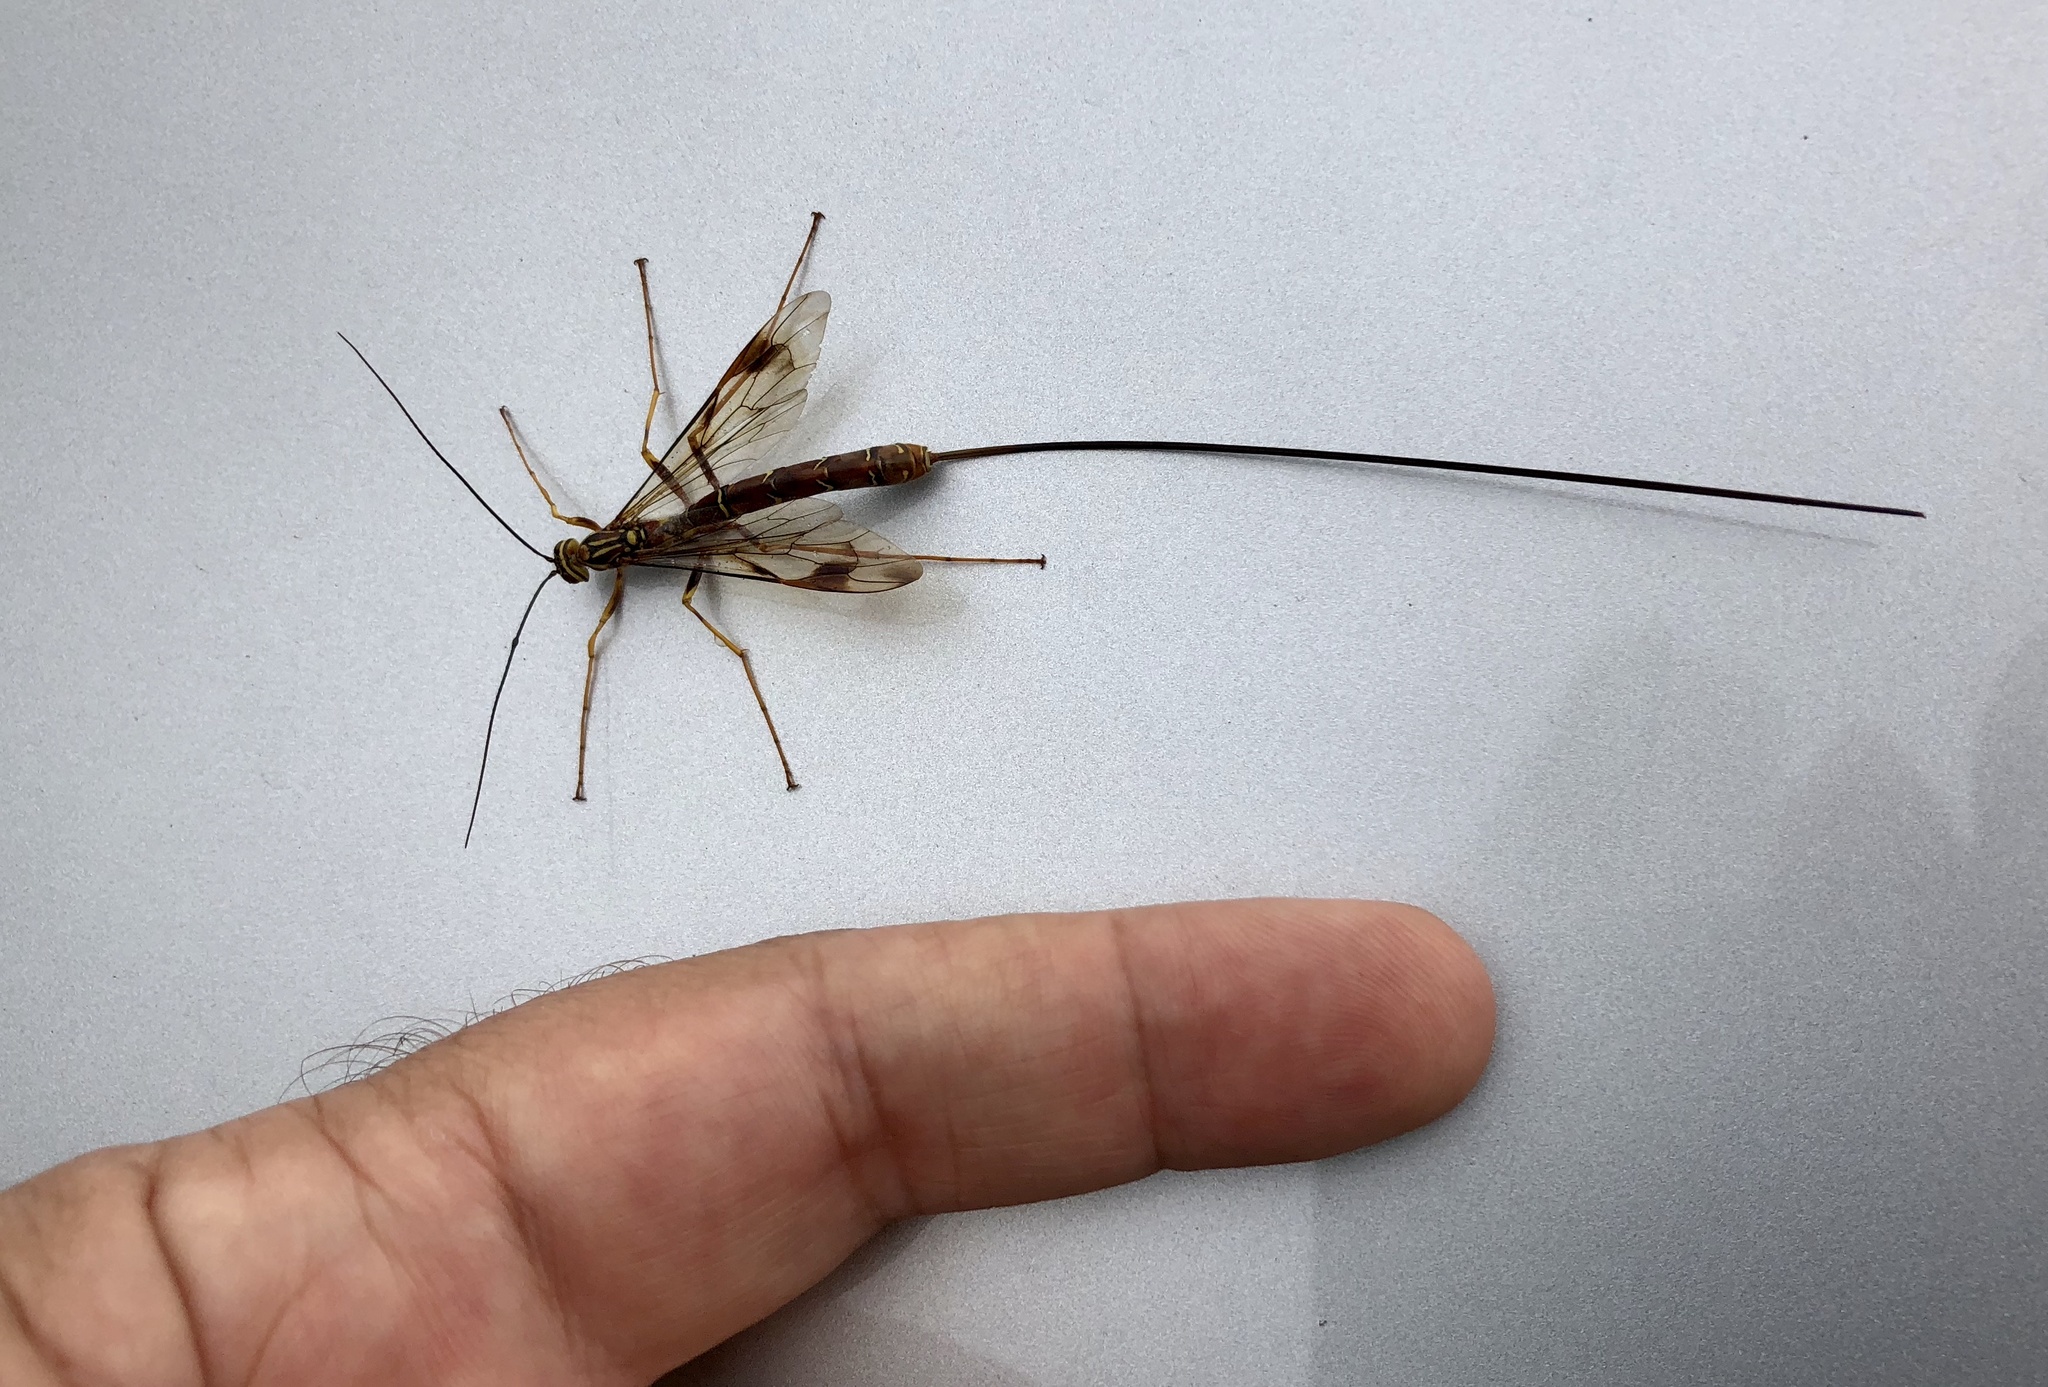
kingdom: Animalia
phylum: Arthropoda
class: Insecta
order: Hymenoptera
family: Ichneumonidae
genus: Megarhyssa
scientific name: Megarhyssa macrura
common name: Long-tailed giant ichneumonid wasp
